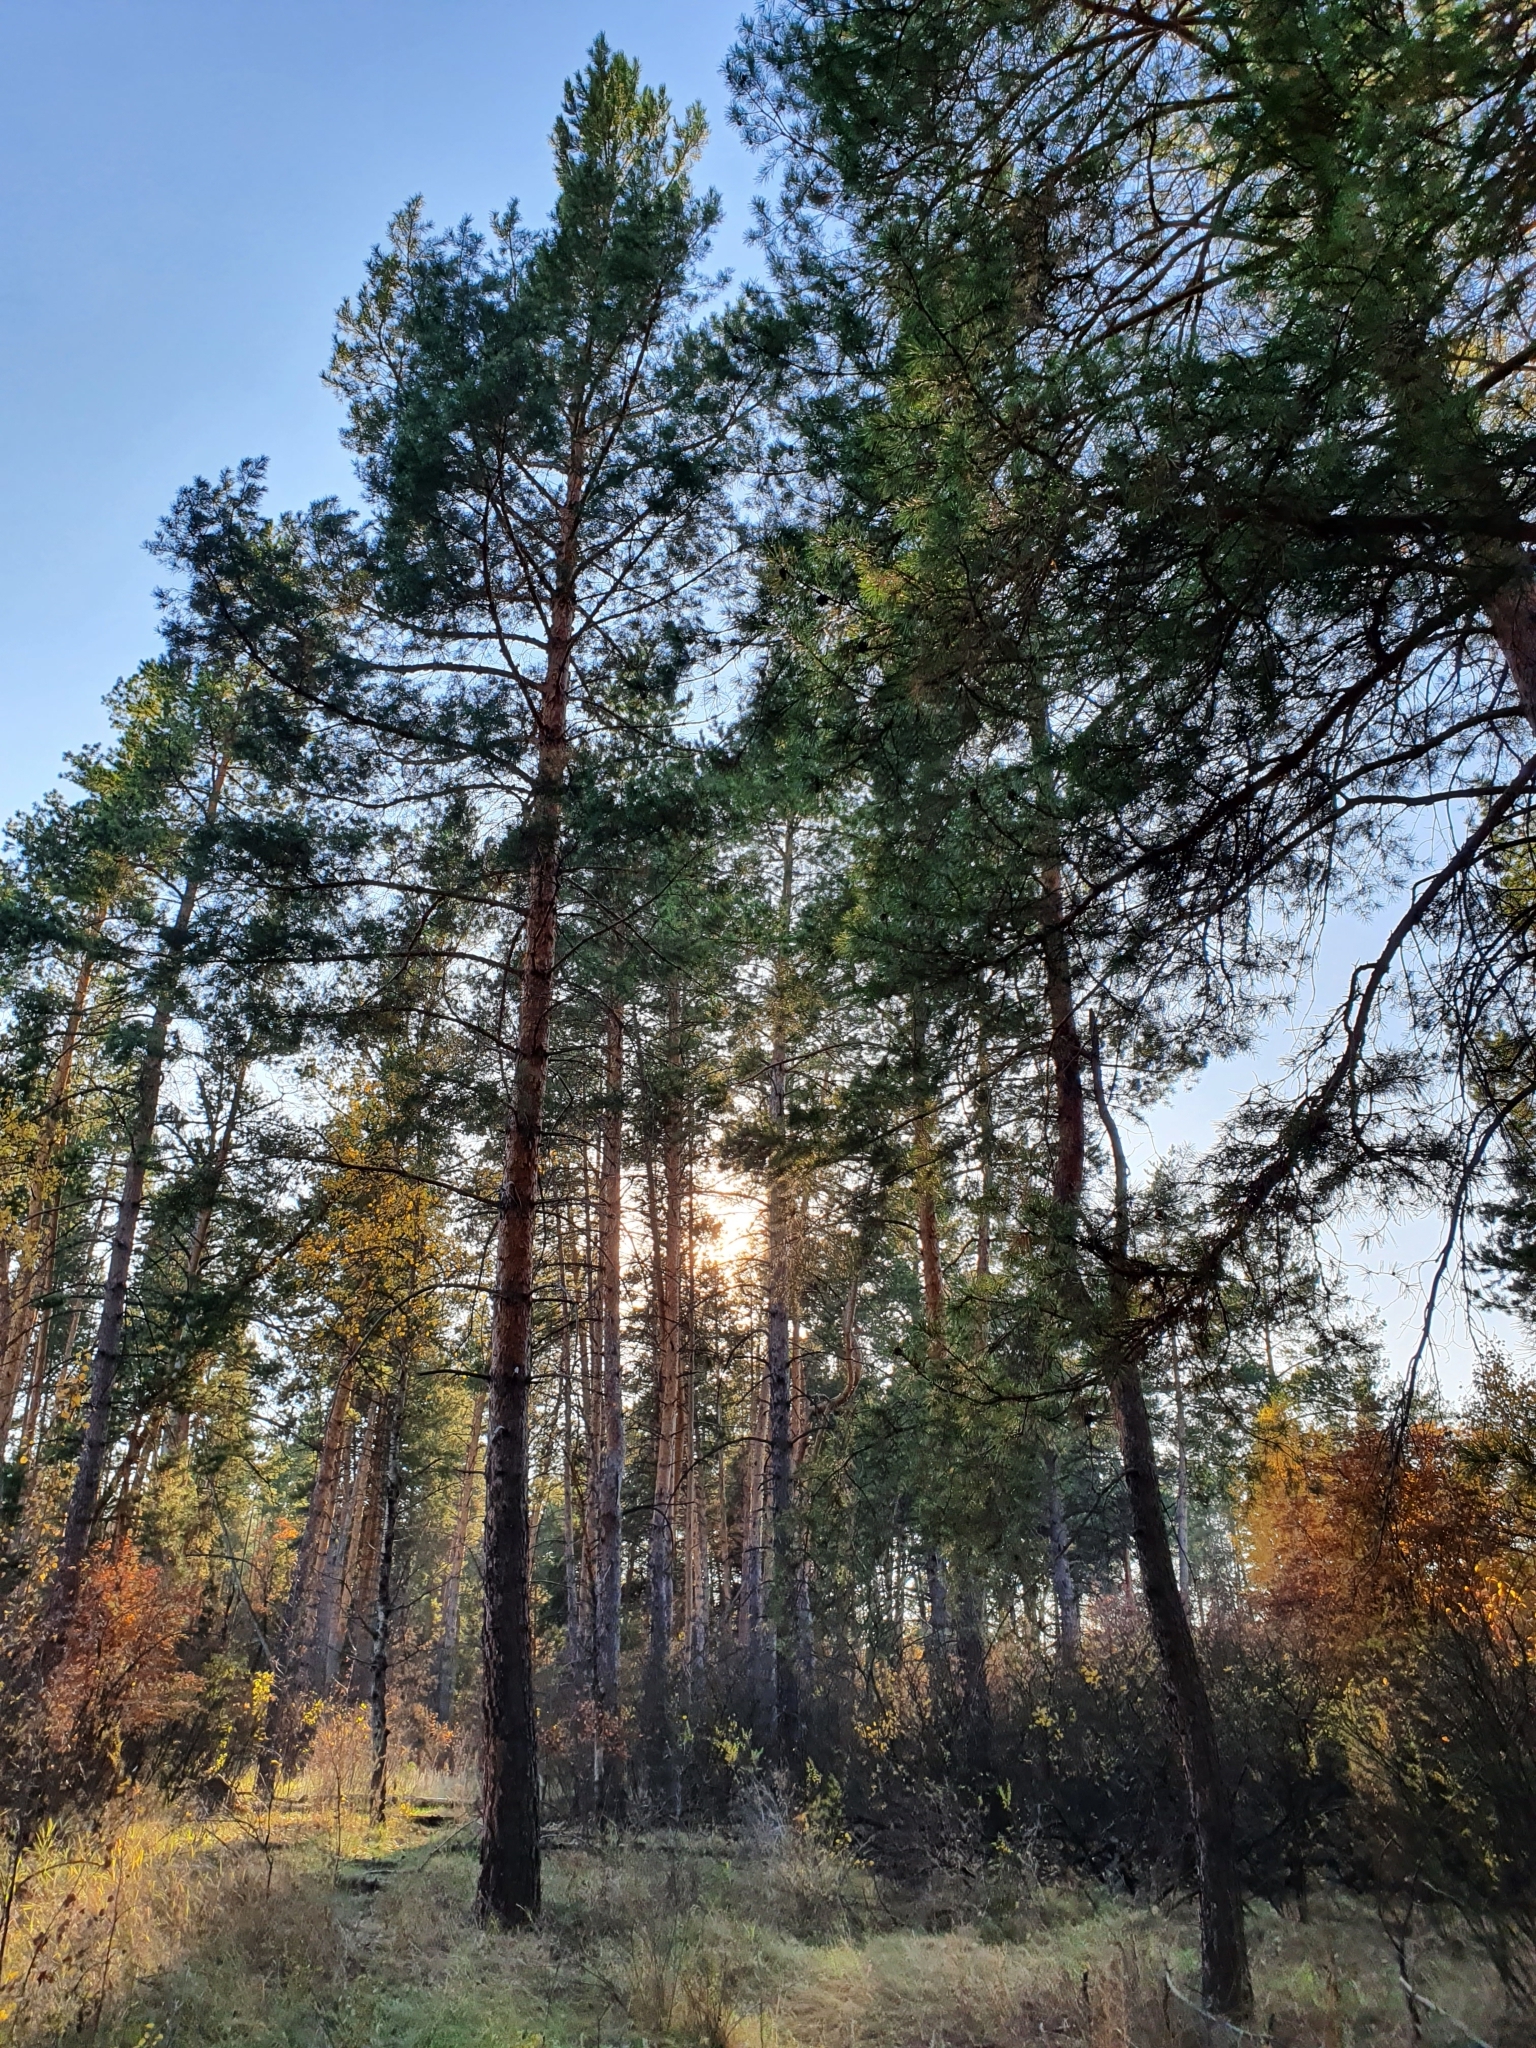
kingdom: Plantae
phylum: Tracheophyta
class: Pinopsida
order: Pinales
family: Pinaceae
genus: Pinus
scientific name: Pinus sylvestris
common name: Scots pine
